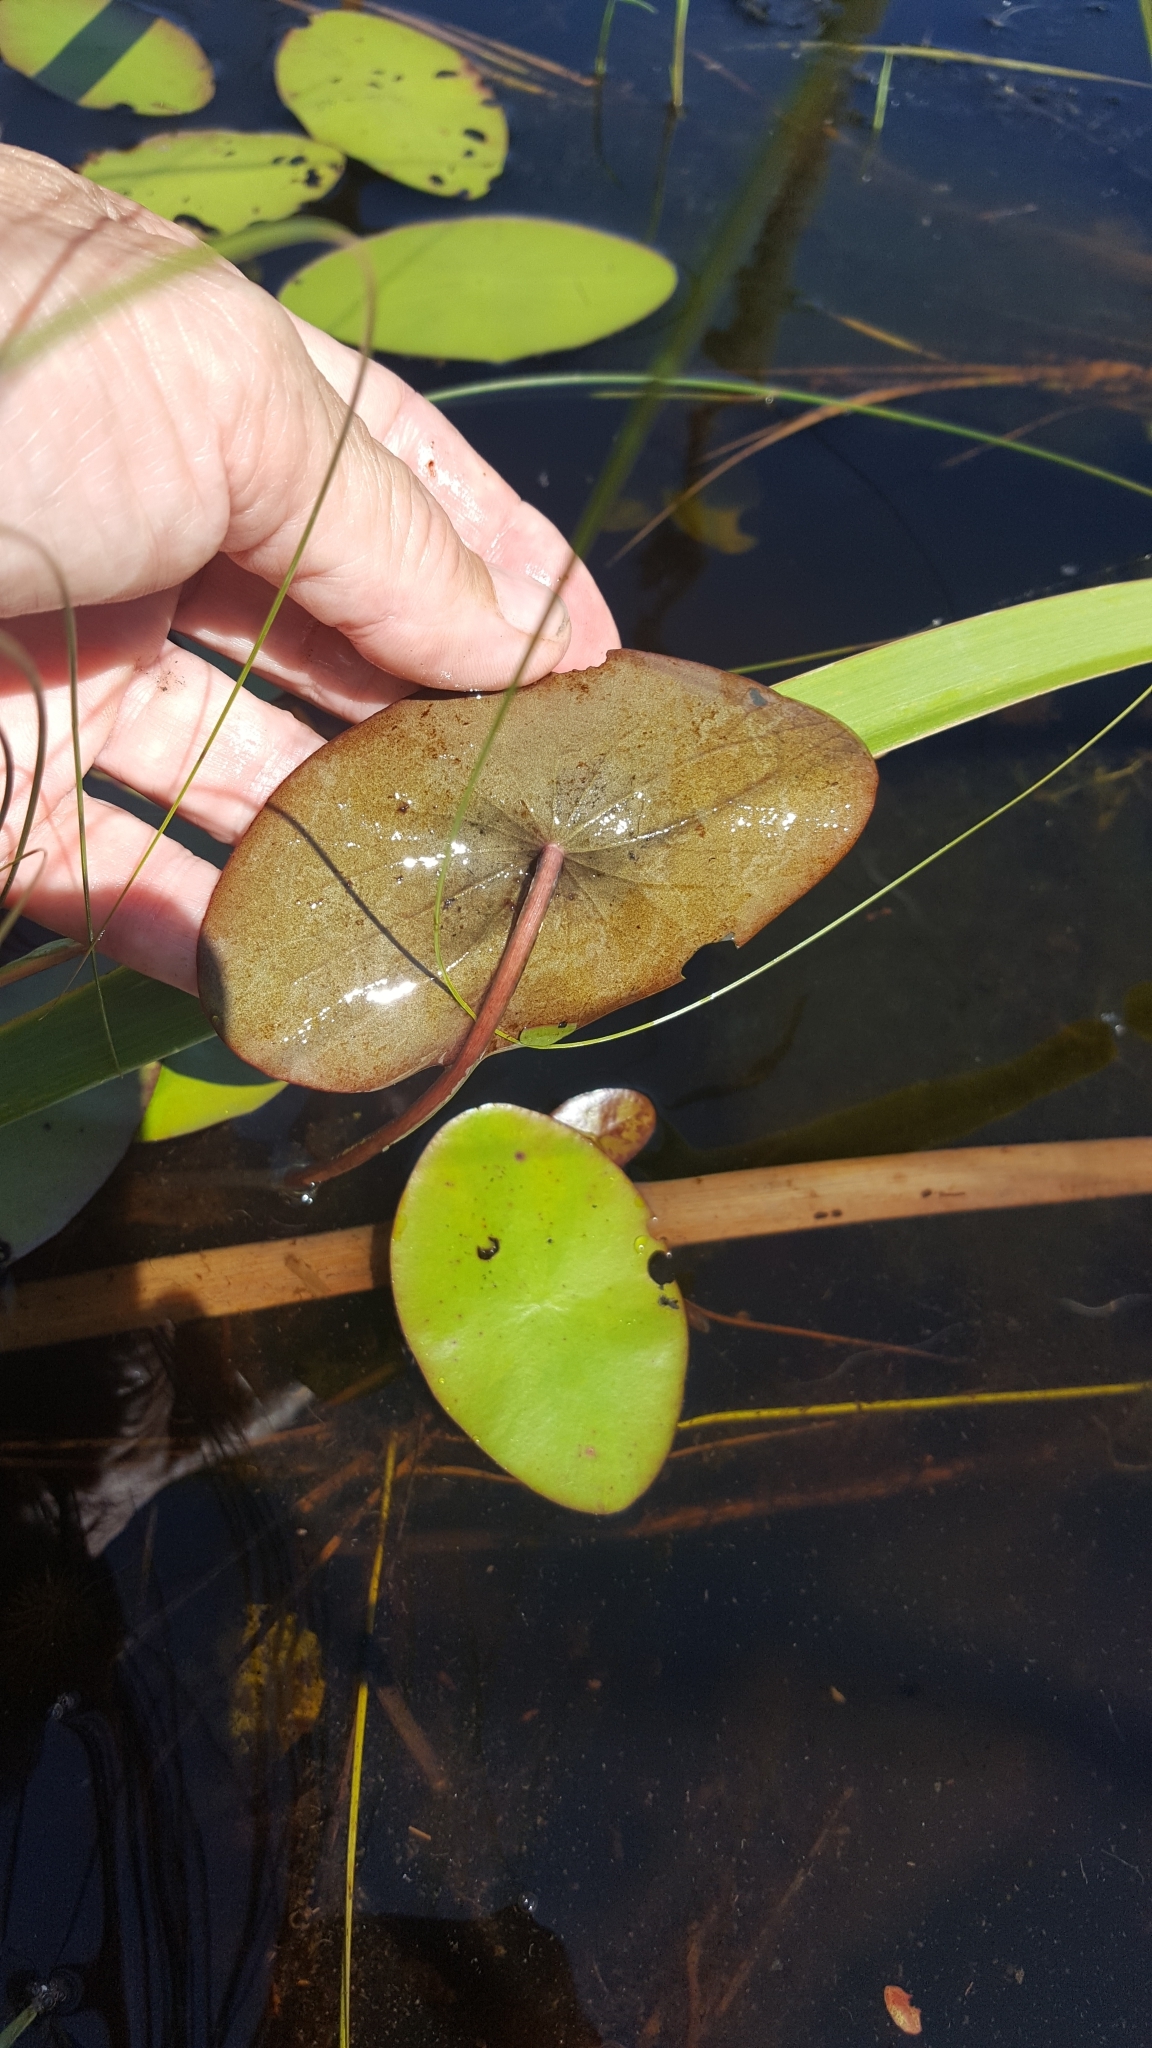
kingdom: Plantae
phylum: Tracheophyta
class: Magnoliopsida
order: Nymphaeales
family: Cabombaceae
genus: Brasenia
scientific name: Brasenia schreberi
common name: Water-shield
